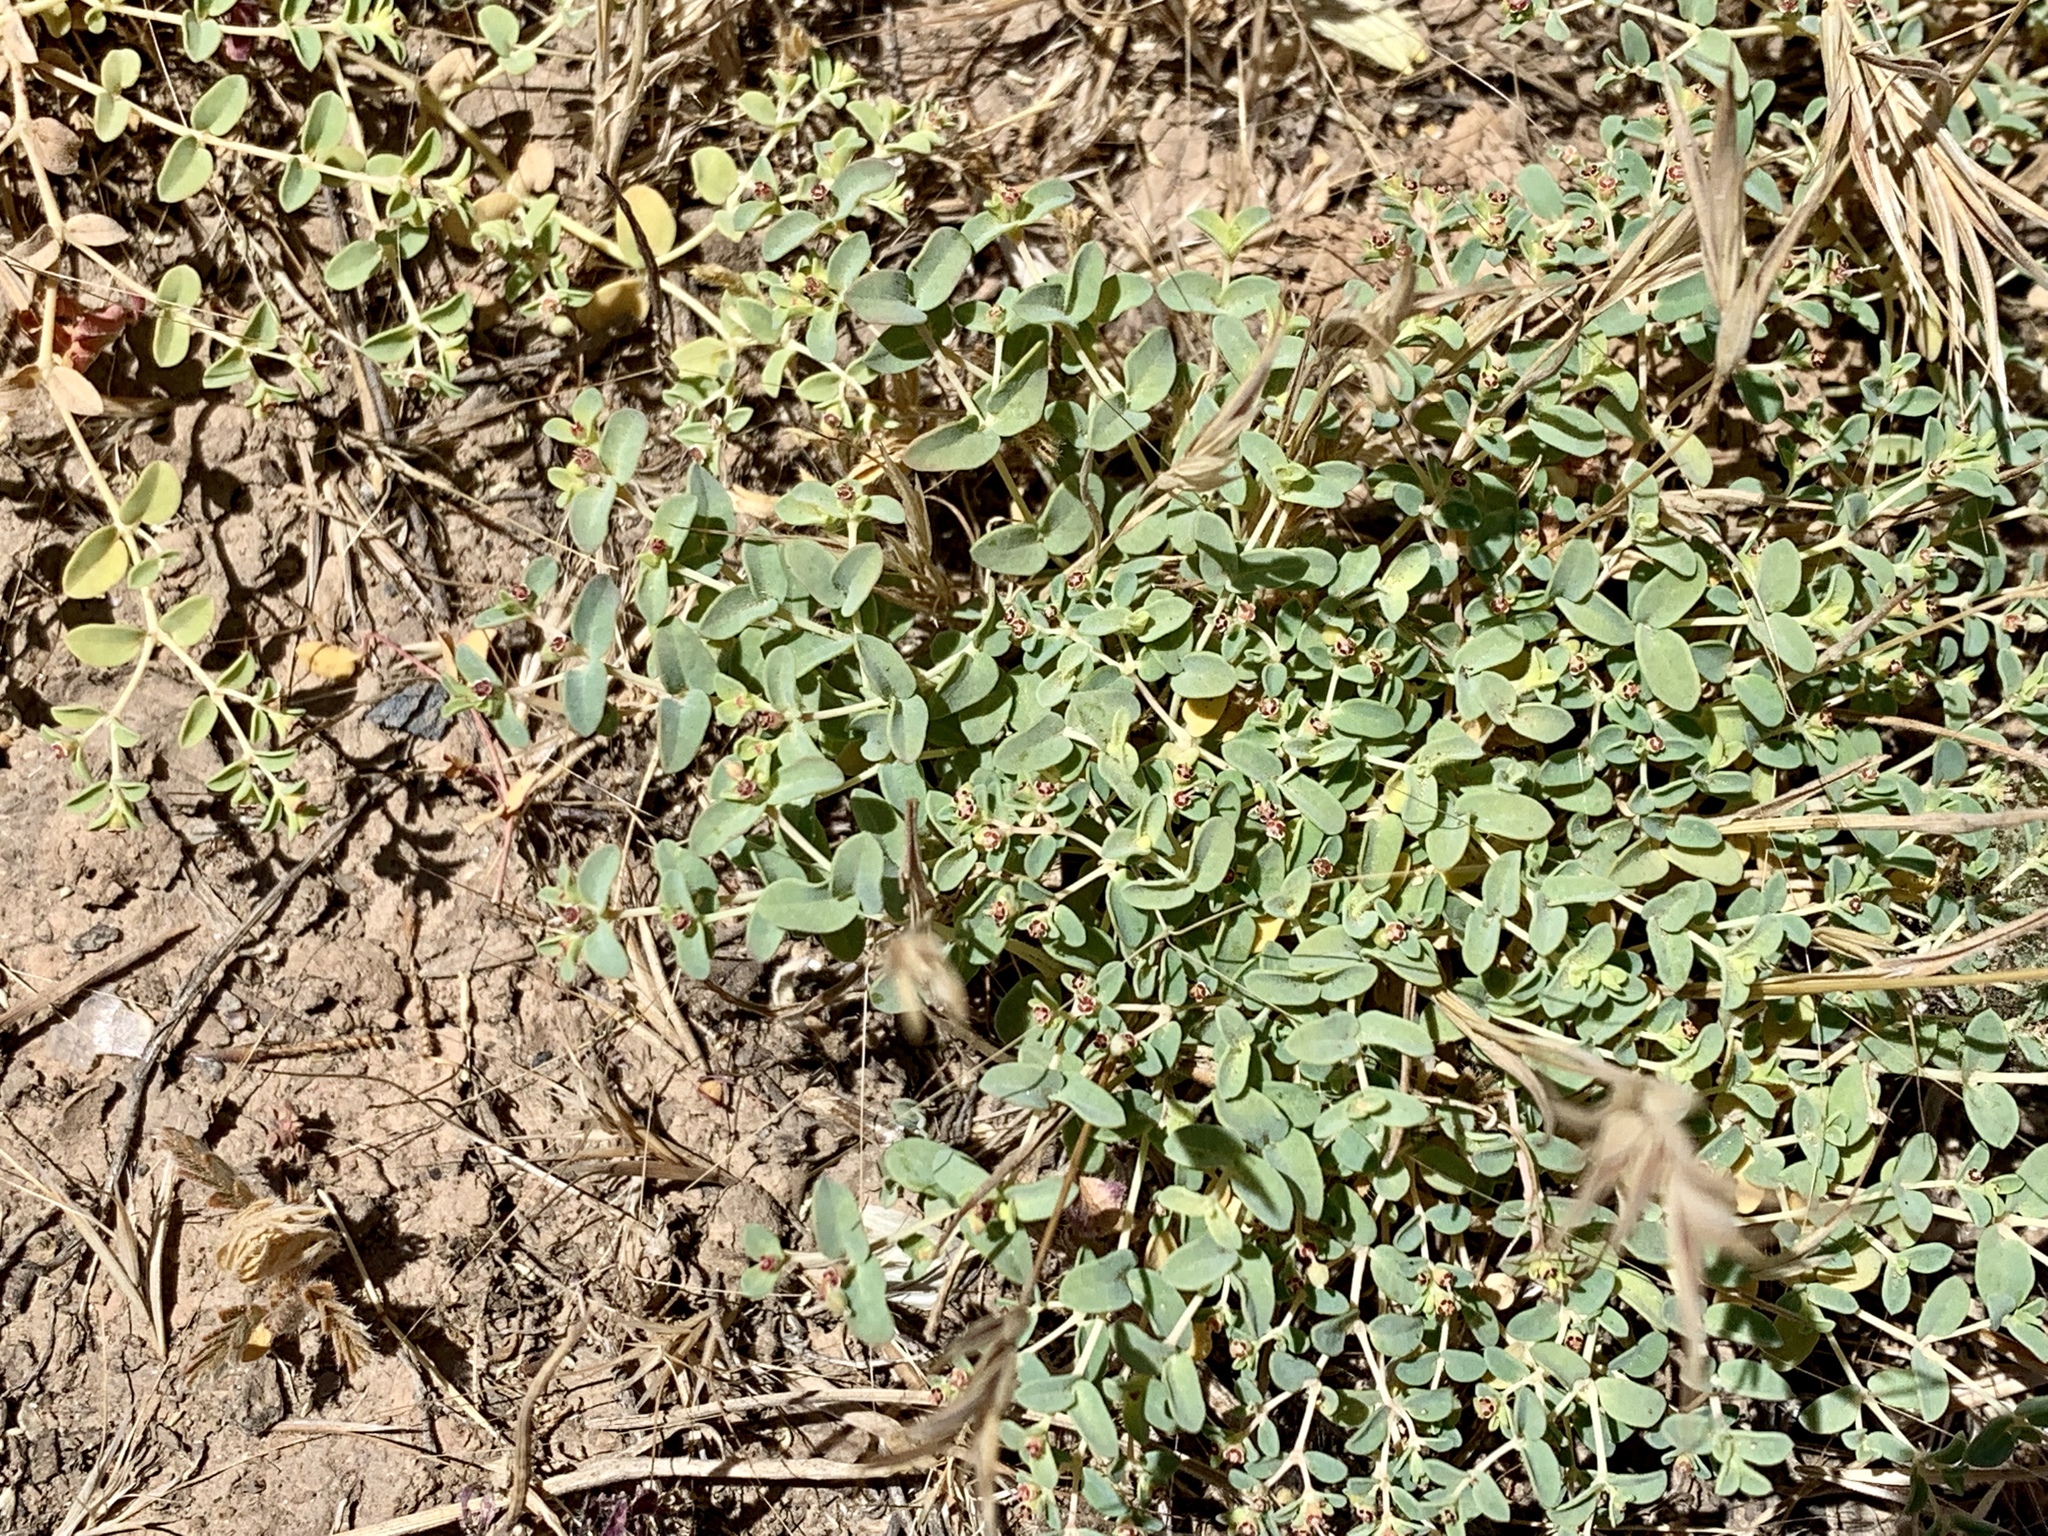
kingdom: Plantae
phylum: Tracheophyta
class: Magnoliopsida
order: Malpighiales
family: Euphorbiaceae
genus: Euphorbia
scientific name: Euphorbia polycarpa
